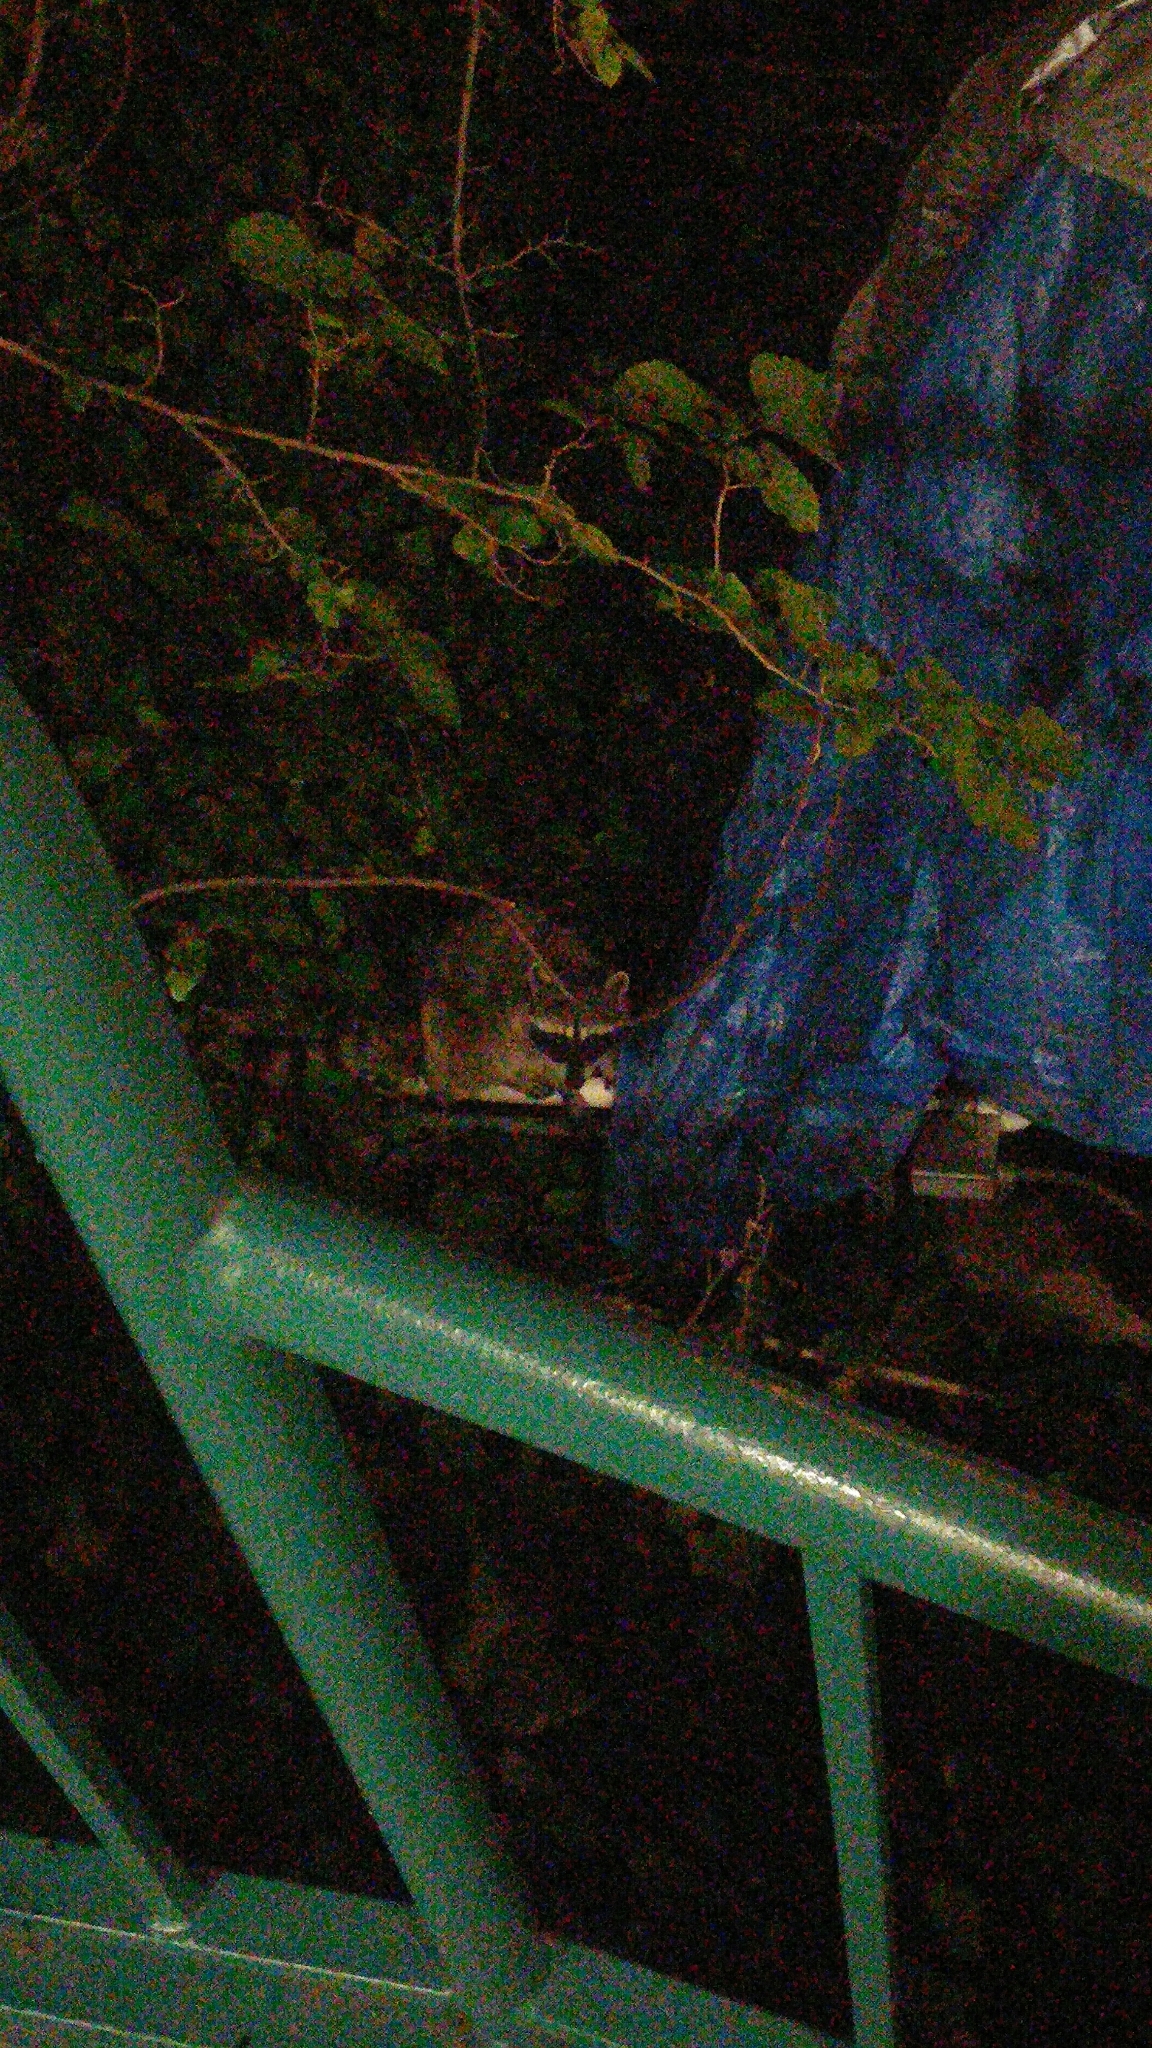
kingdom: Animalia
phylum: Chordata
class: Mammalia
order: Carnivora
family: Procyonidae
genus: Procyon
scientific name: Procyon lotor
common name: Raccoon
